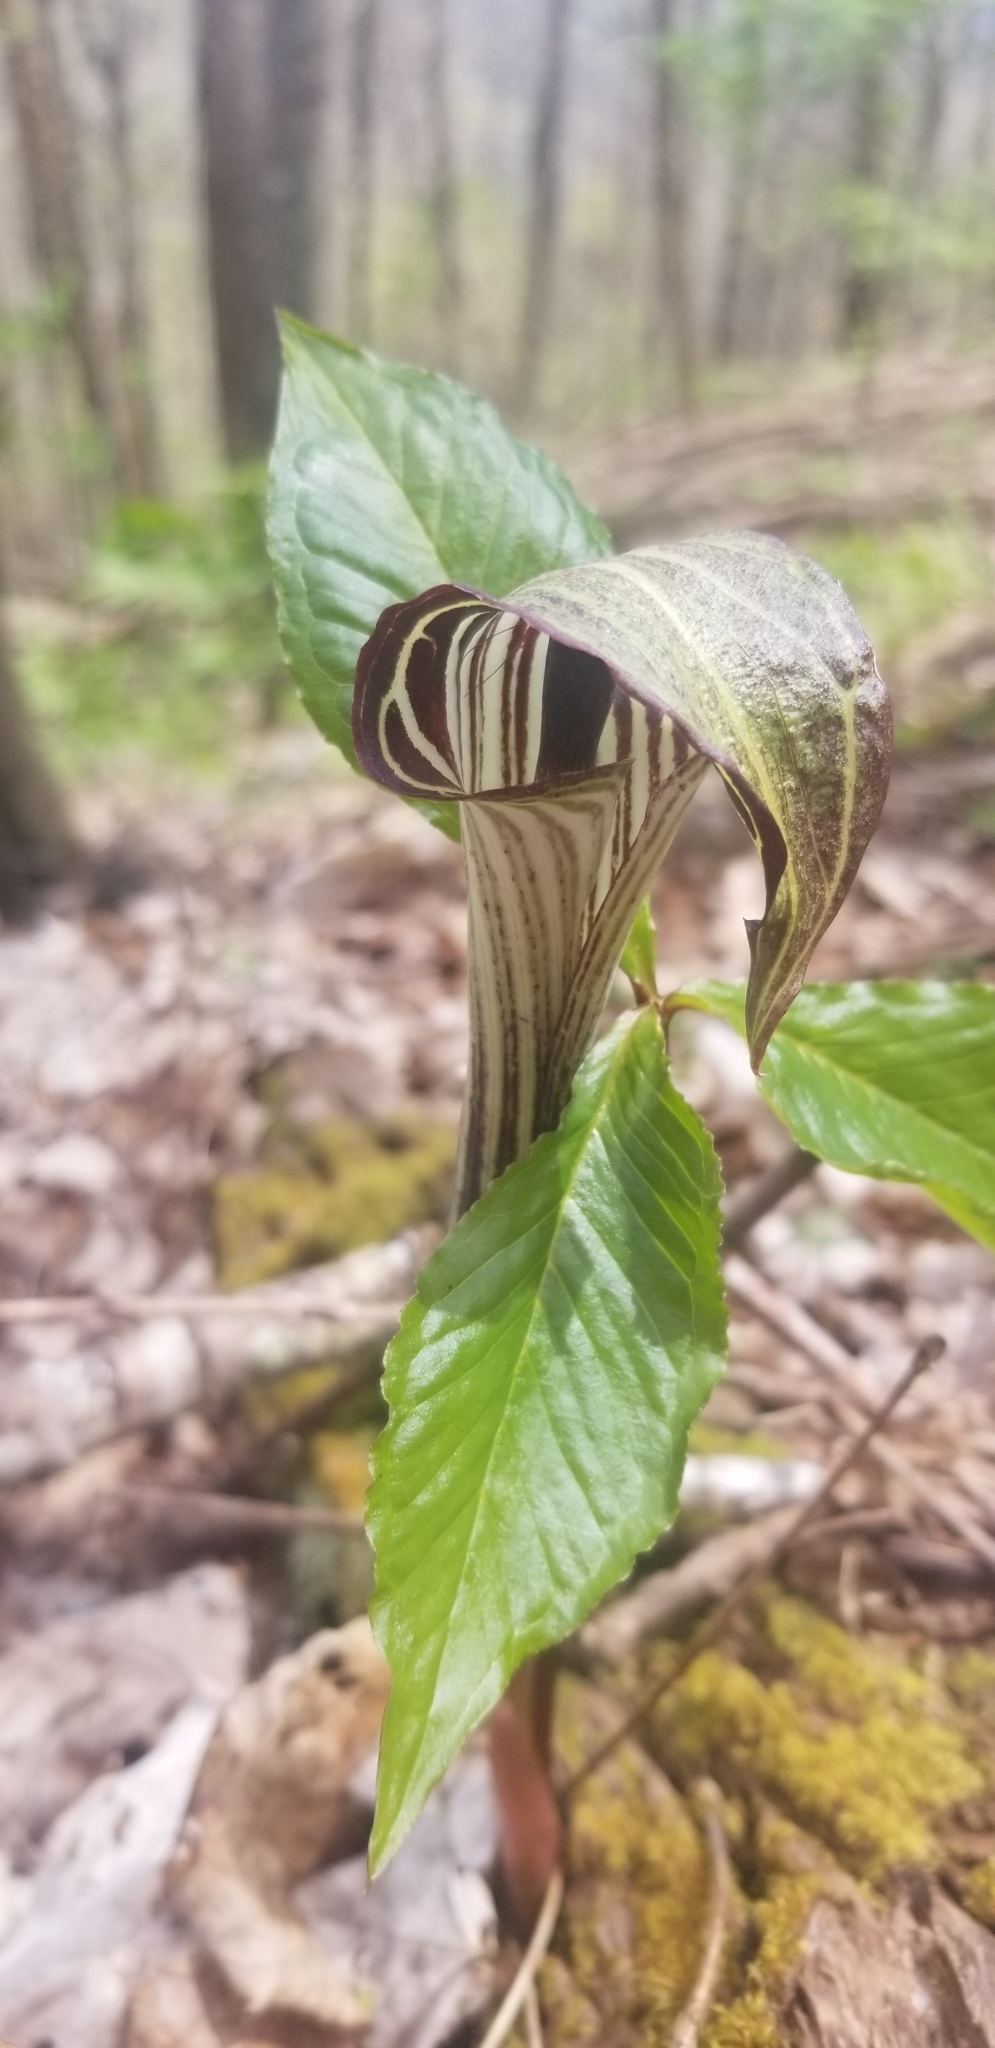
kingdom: Plantae
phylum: Tracheophyta
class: Liliopsida
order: Alismatales
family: Araceae
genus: Arisaema
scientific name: Arisaema triphyllum
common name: Jack-in-the-pulpit
